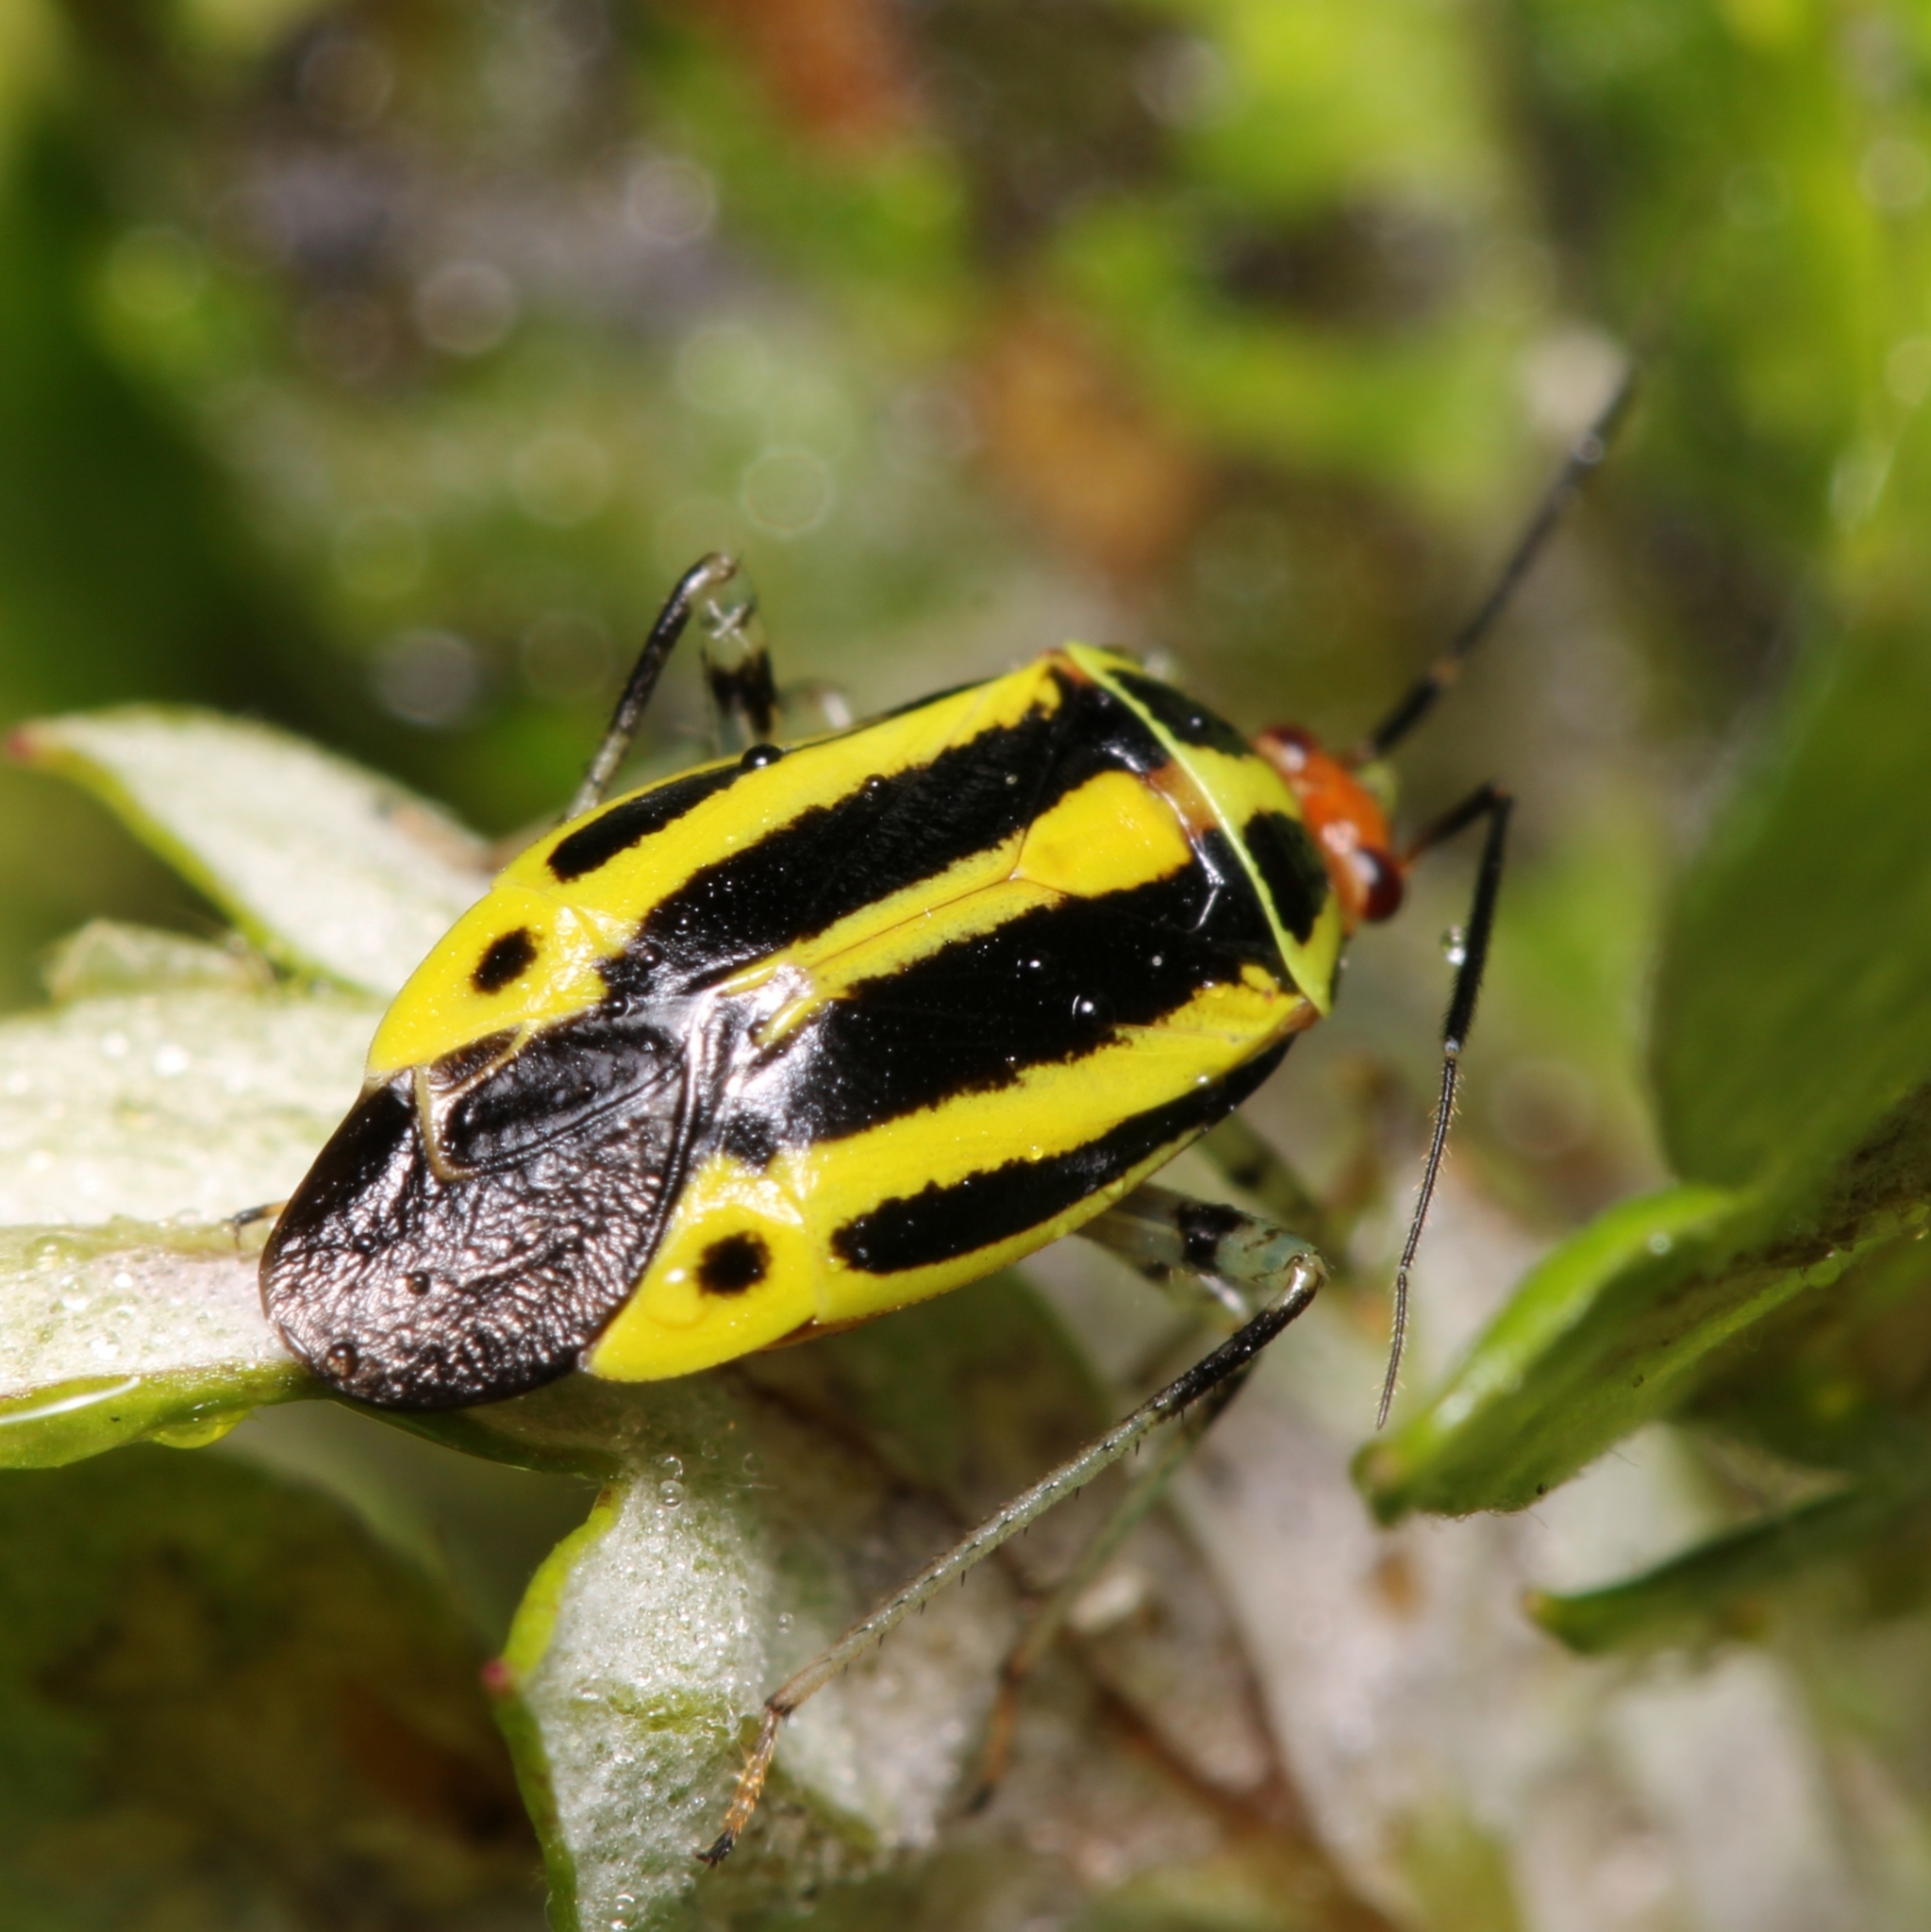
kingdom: Animalia
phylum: Arthropoda
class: Insecta
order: Hemiptera
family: Miridae
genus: Poecilocapsus
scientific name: Poecilocapsus lineatus
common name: Four-lined plant bug
